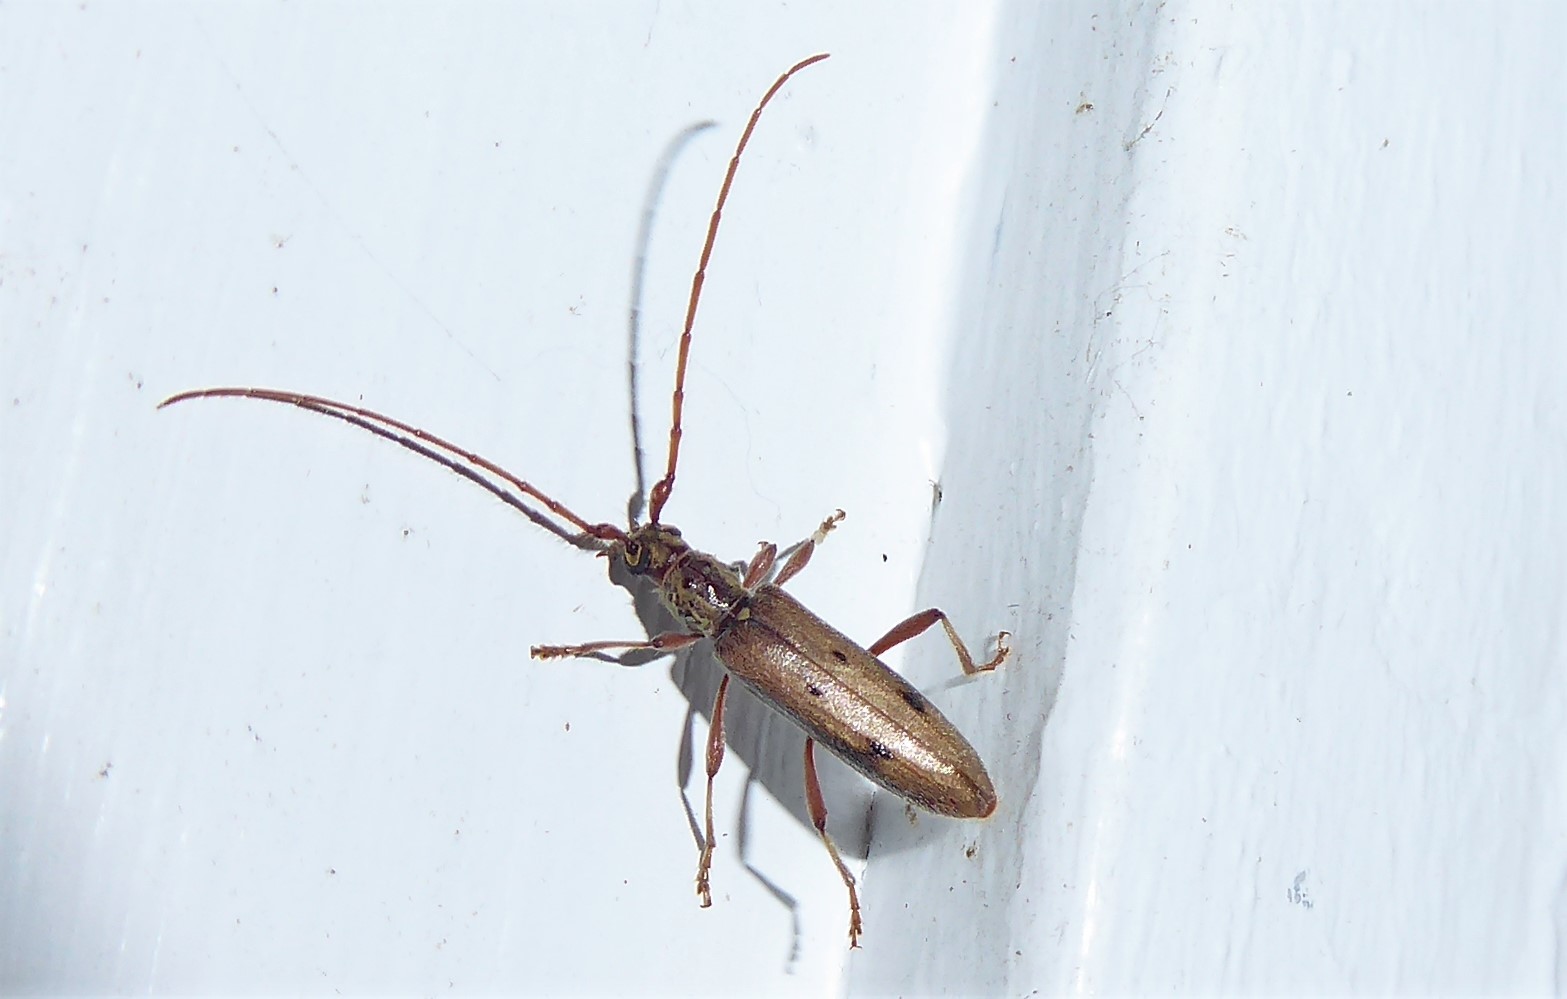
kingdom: Animalia
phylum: Arthropoda
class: Insecta
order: Coleoptera
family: Cerambycidae
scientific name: Cerambycidae
